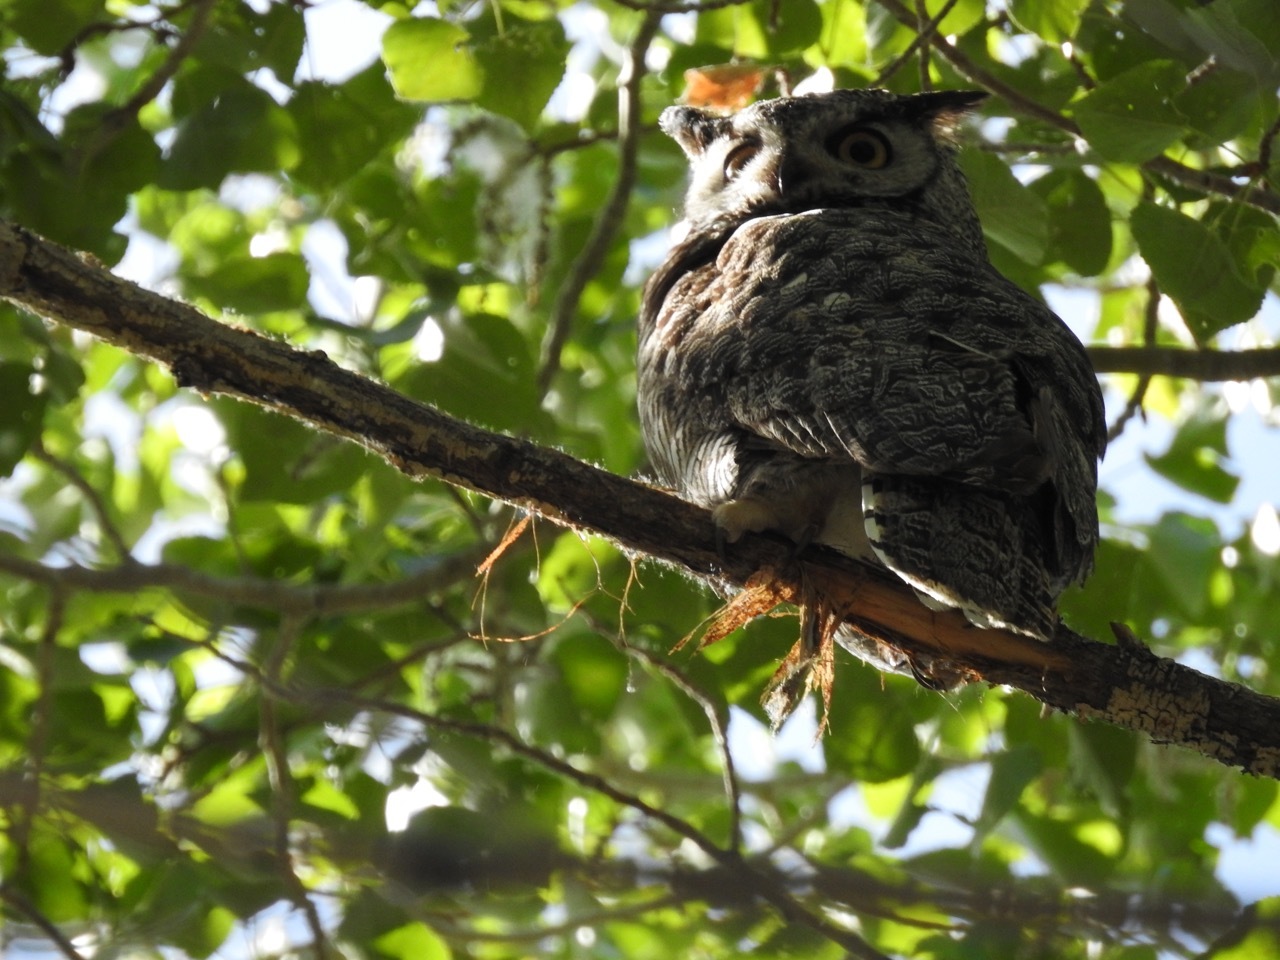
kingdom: Animalia
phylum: Chordata
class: Aves
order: Strigiformes
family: Strigidae
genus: Bubo
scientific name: Bubo virginianus
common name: Great horned owl
